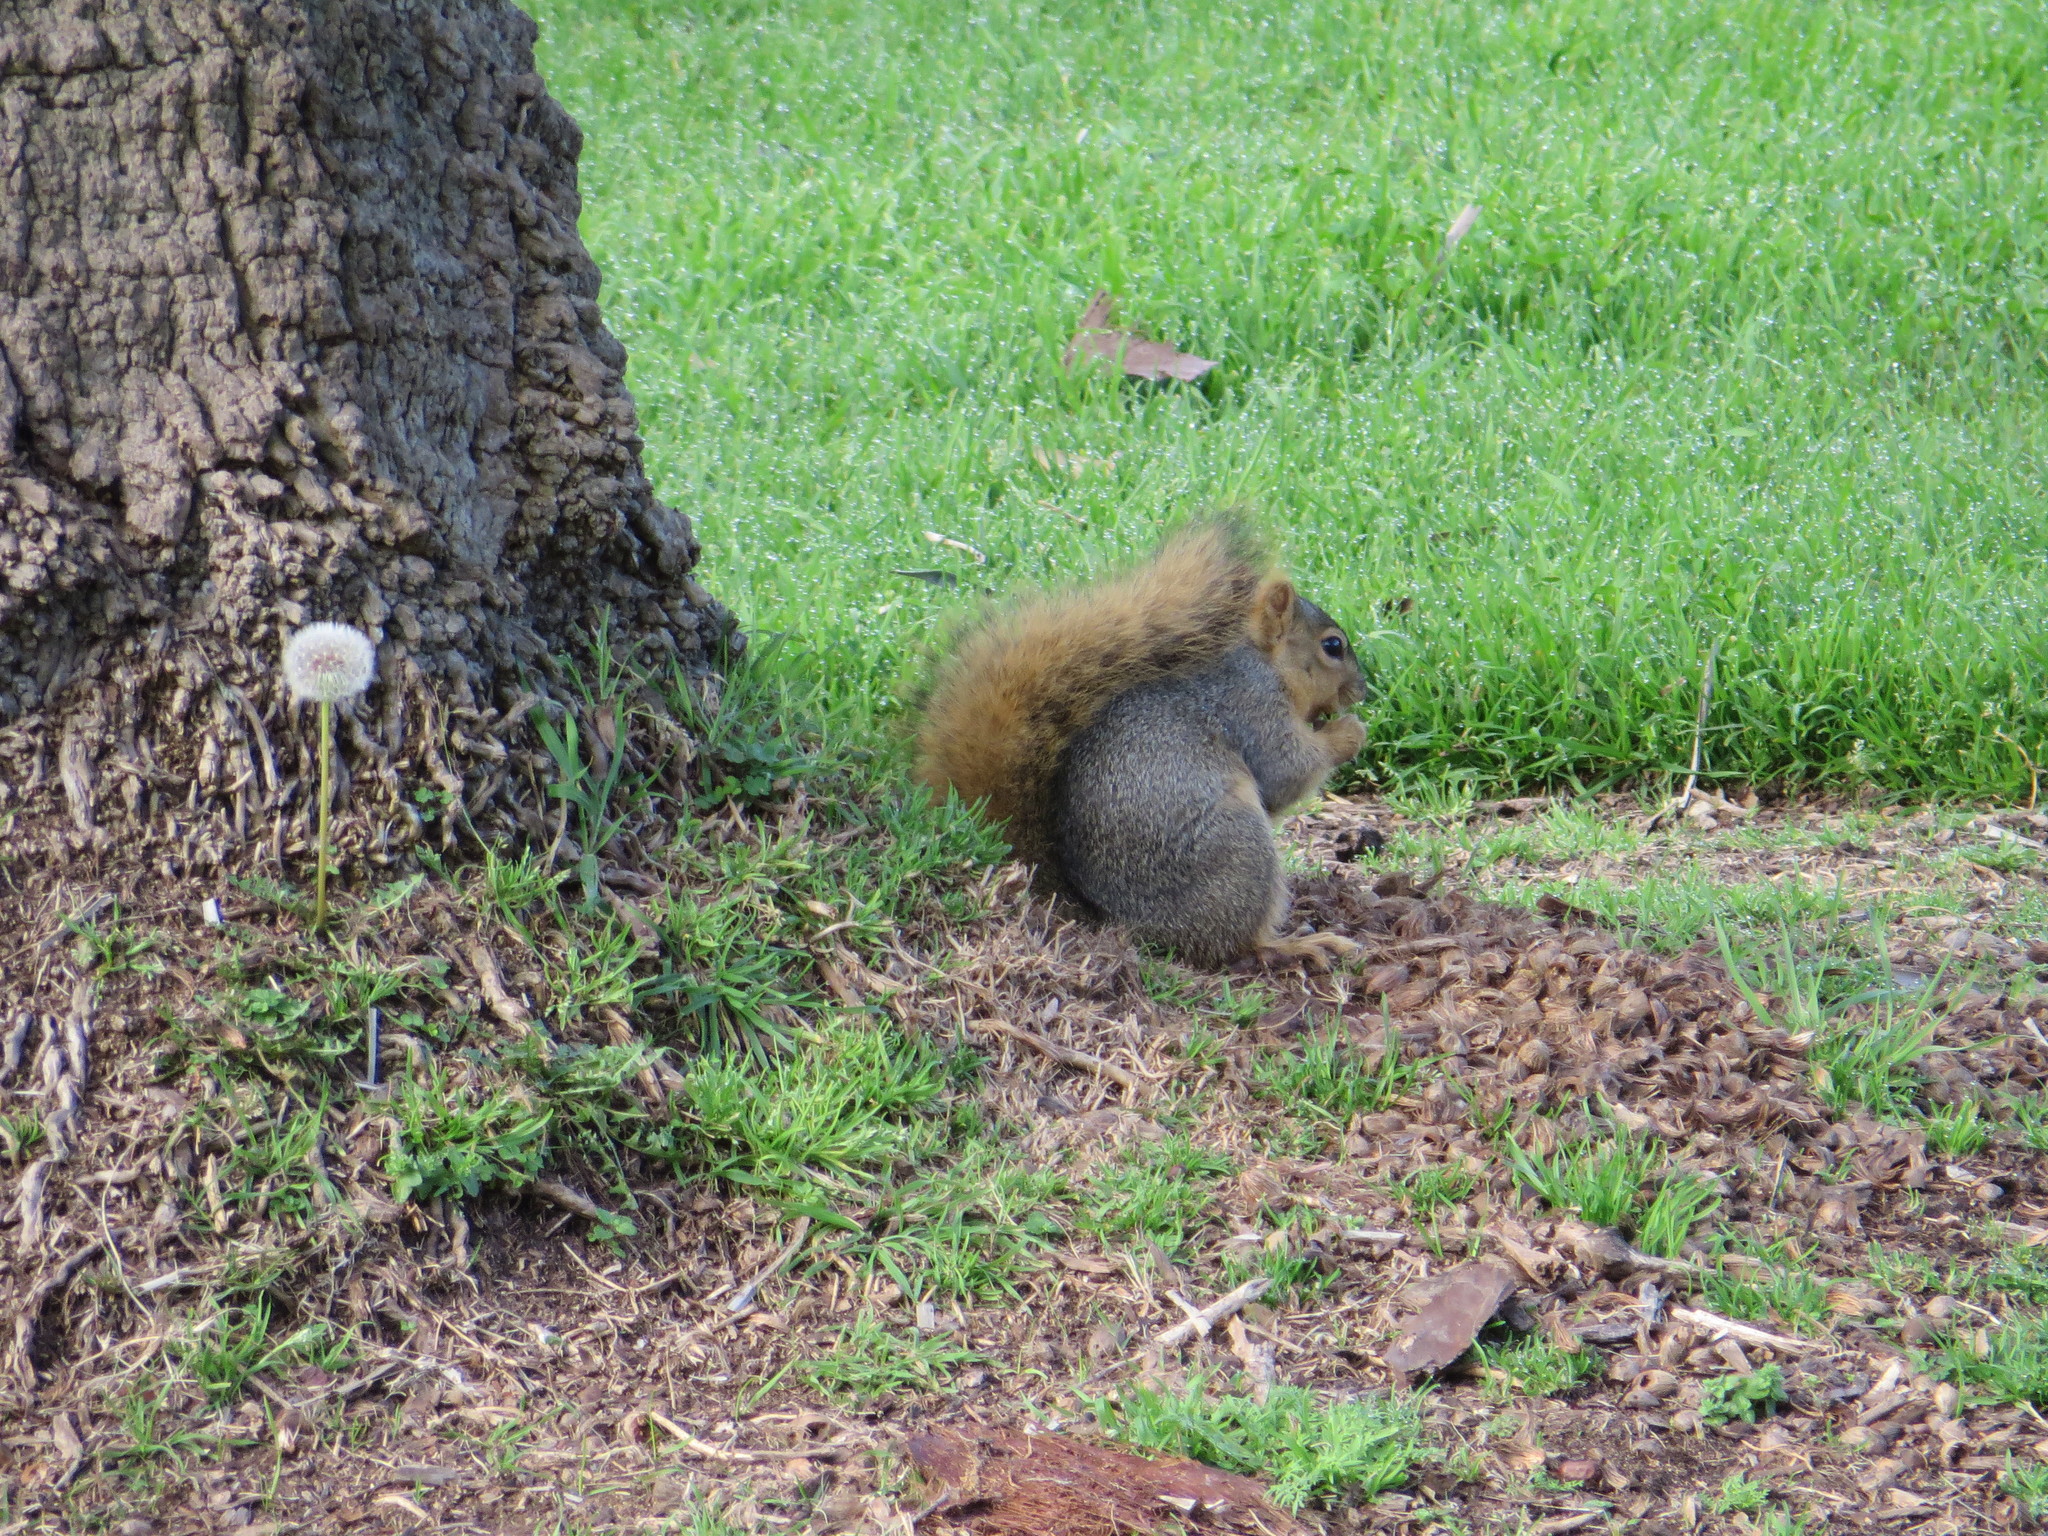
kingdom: Animalia
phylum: Chordata
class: Mammalia
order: Rodentia
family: Sciuridae
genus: Sciurus
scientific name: Sciurus niger
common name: Fox squirrel
